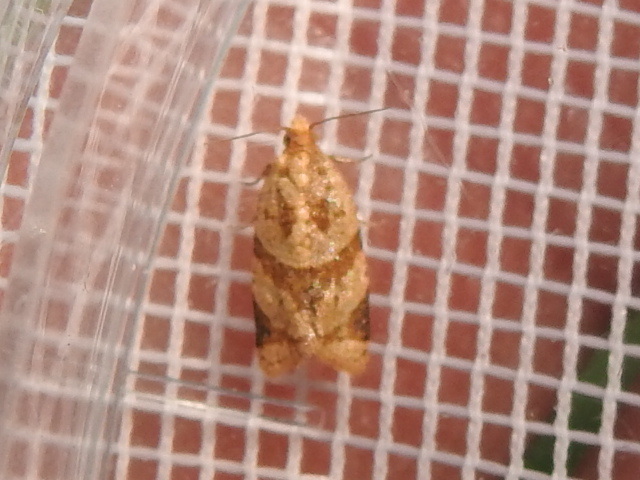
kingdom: Animalia
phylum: Arthropoda
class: Insecta
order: Lepidoptera
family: Tortricidae
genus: Clepsis
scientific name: Clepsis peritana
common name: Garden tortrix
